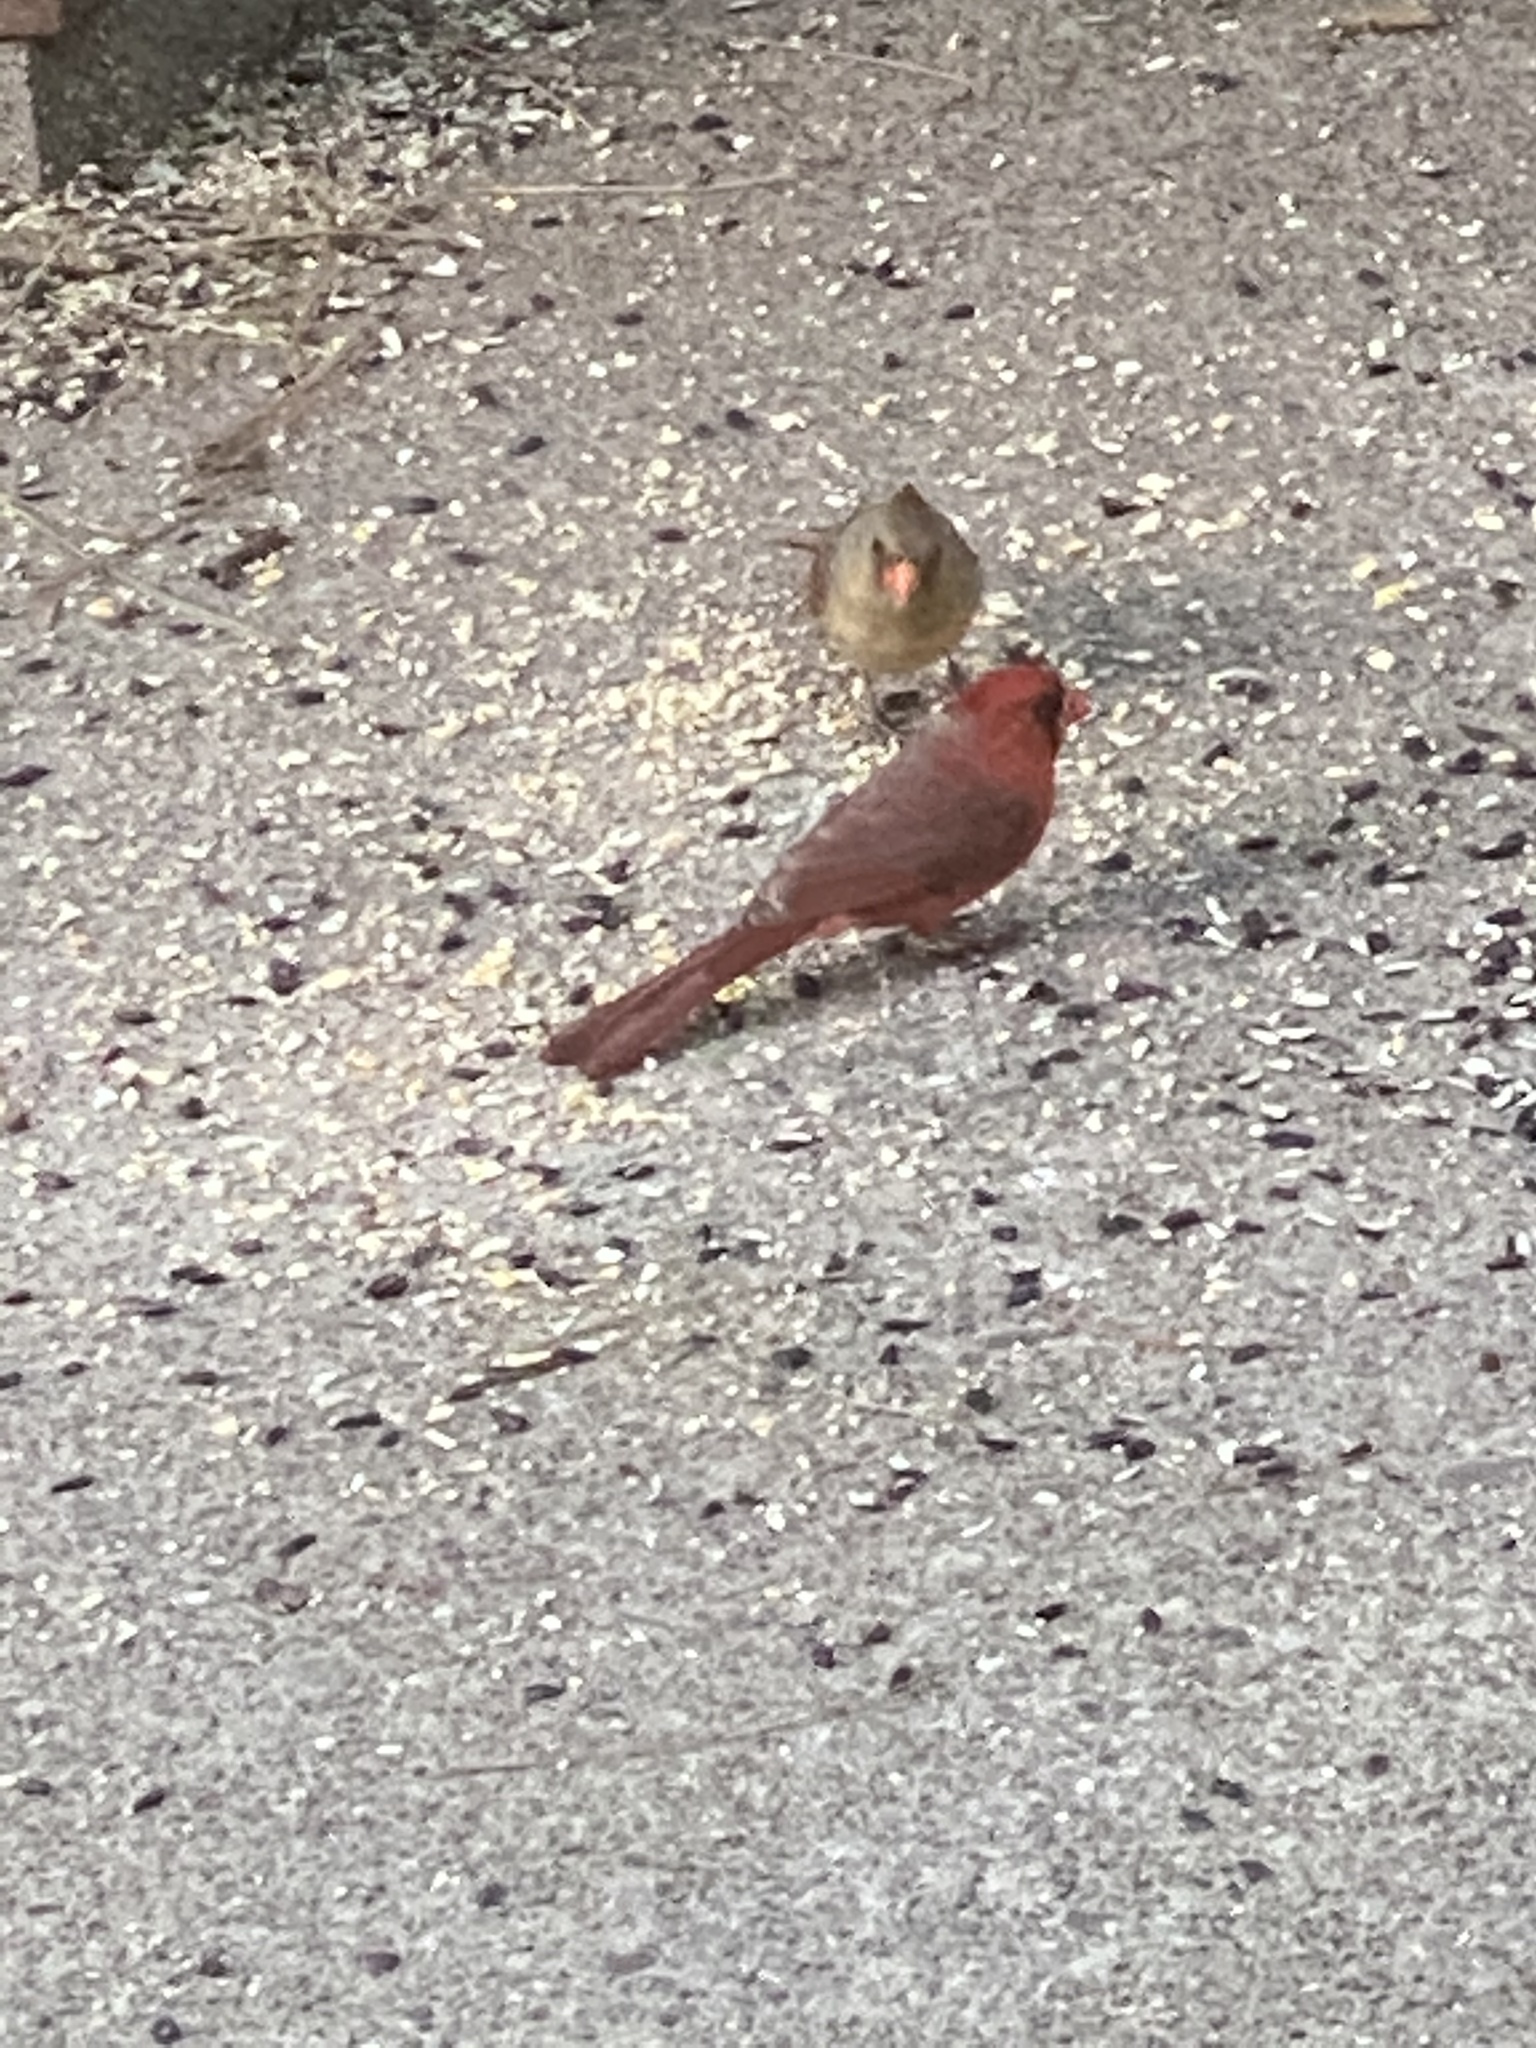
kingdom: Animalia
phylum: Chordata
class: Aves
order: Passeriformes
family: Cardinalidae
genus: Cardinalis
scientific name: Cardinalis cardinalis
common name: Northern cardinal
